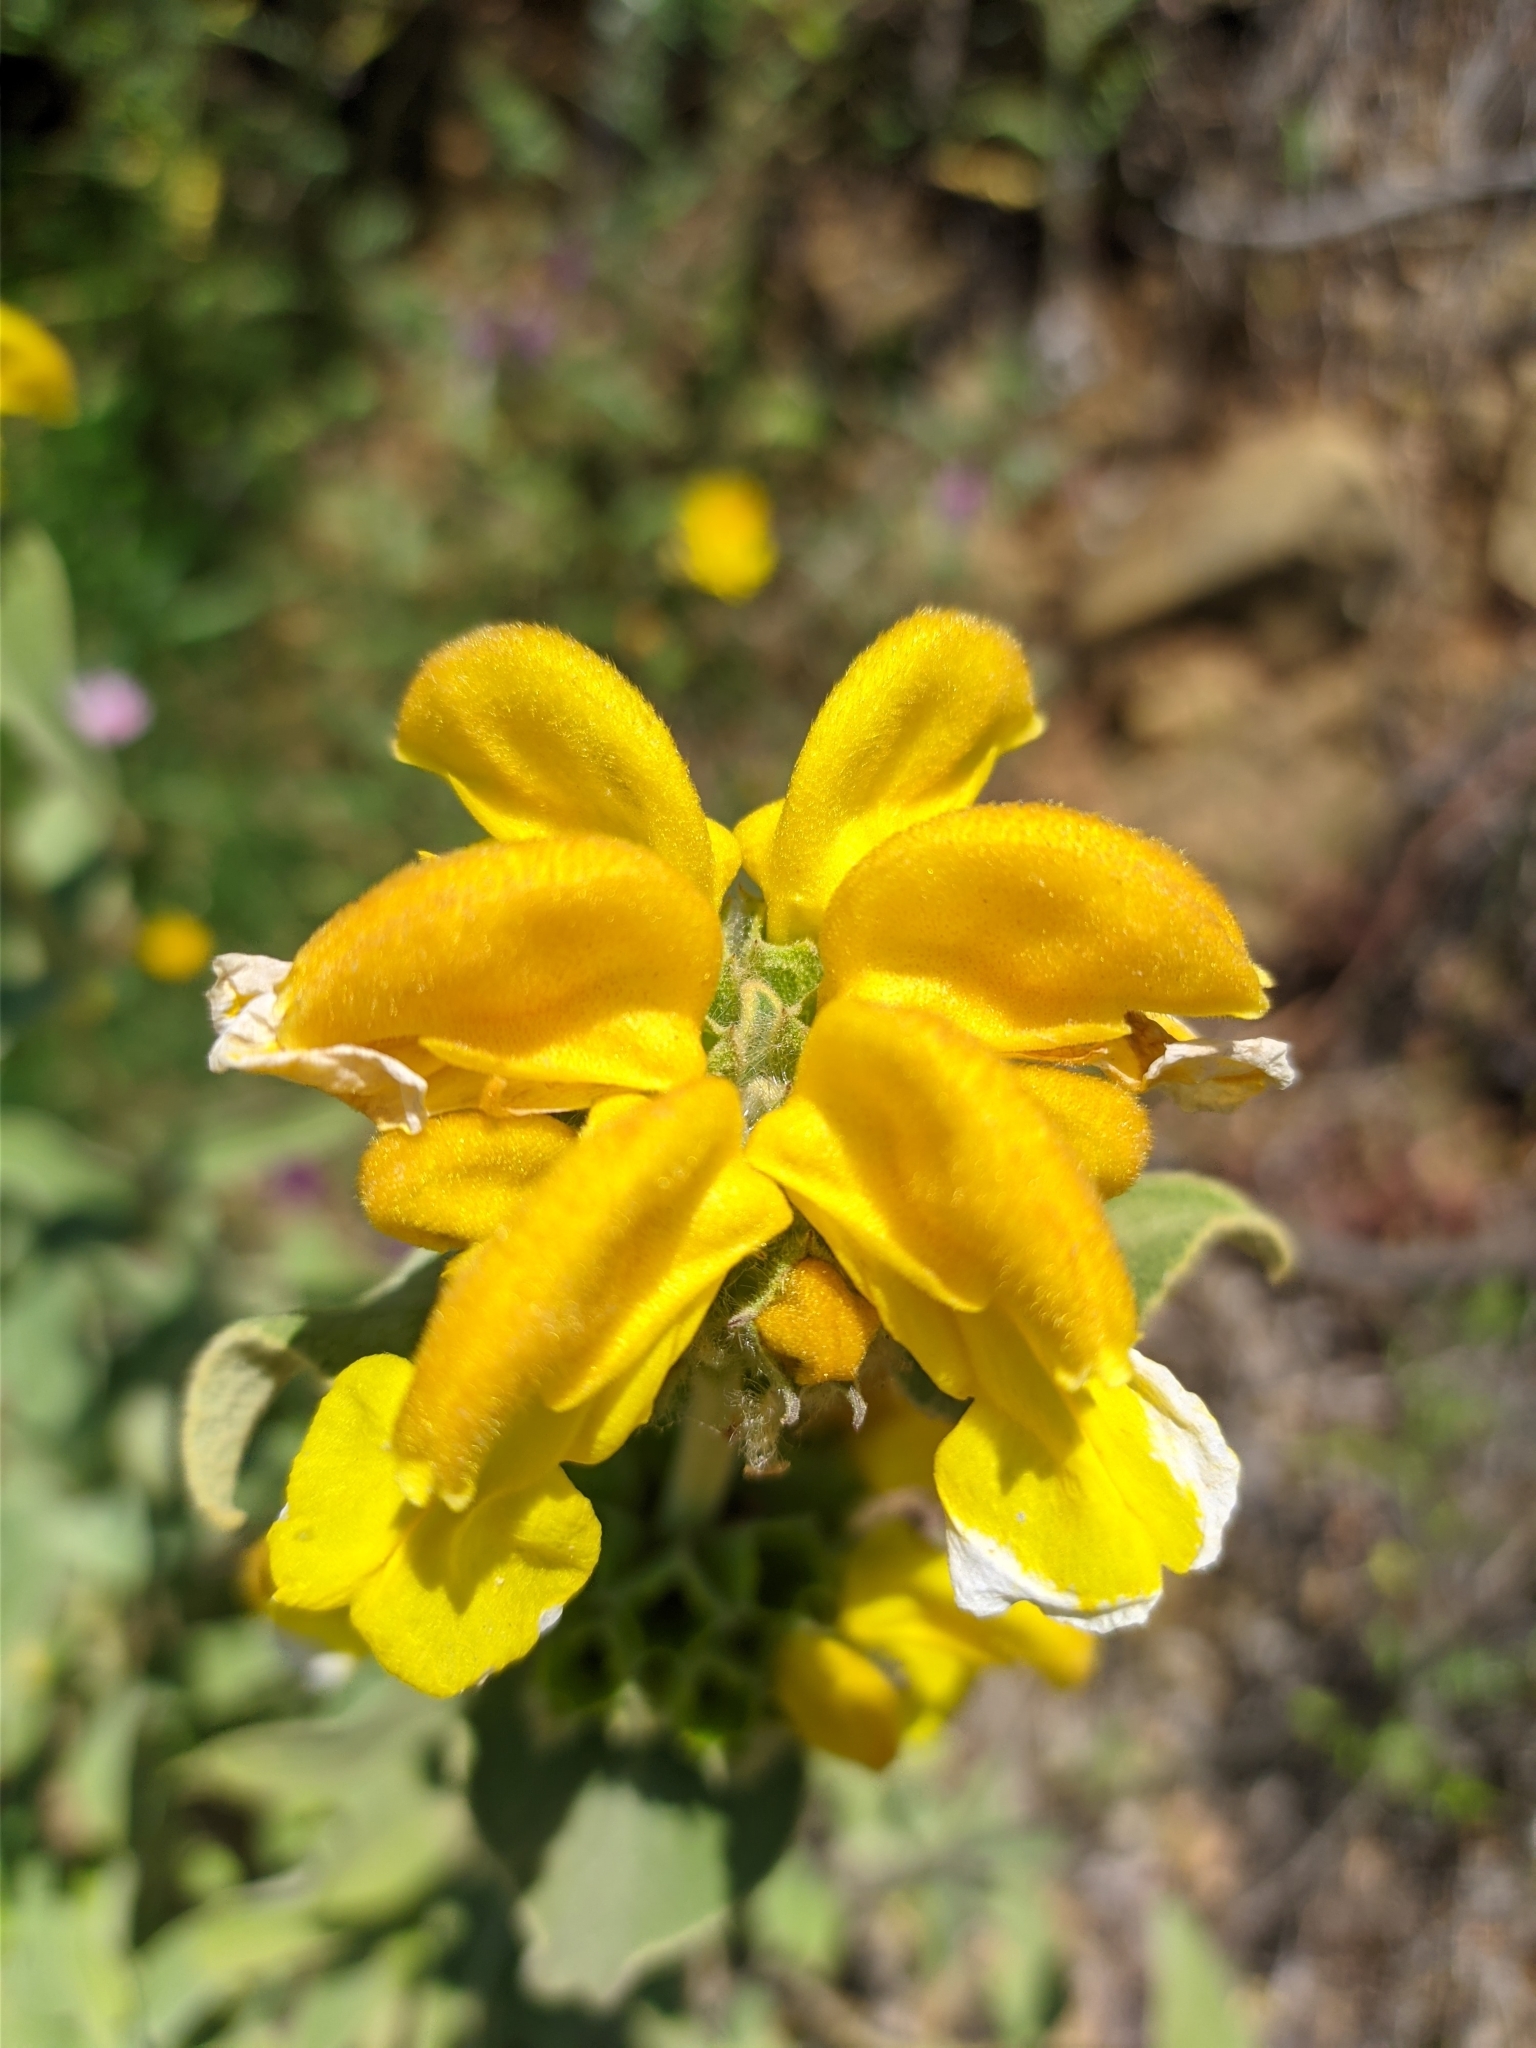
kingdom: Plantae
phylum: Tracheophyta
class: Magnoliopsida
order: Lamiales
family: Lamiaceae
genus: Phlomis
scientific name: Phlomis fruticosa
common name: Jerusalem sage
